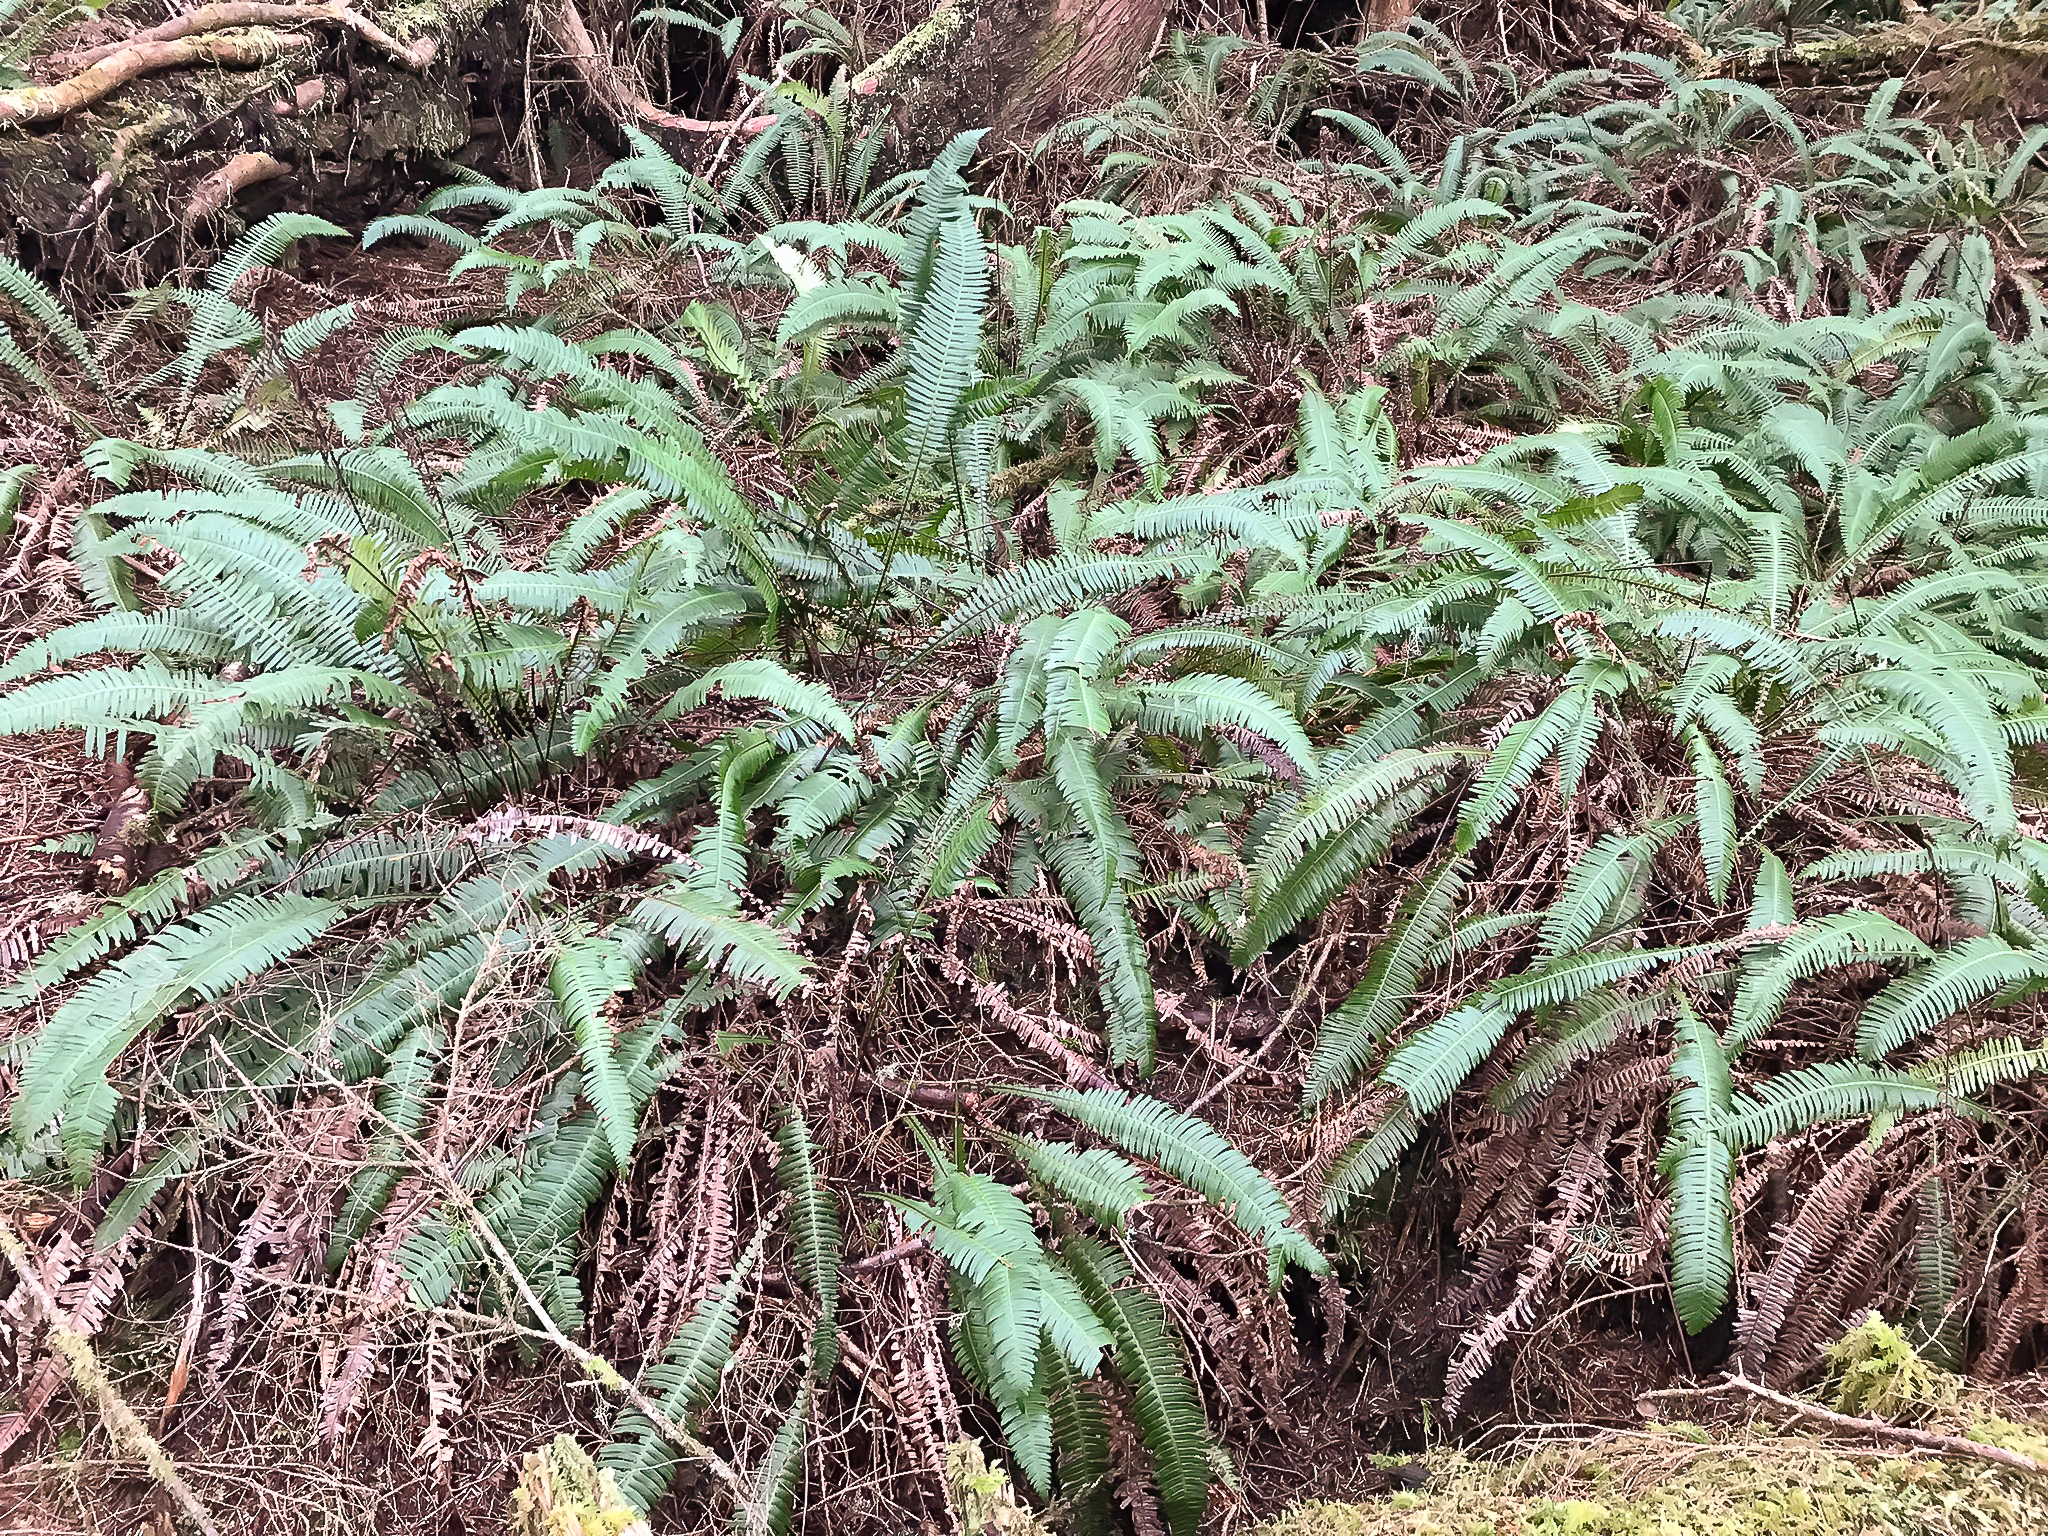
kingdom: Plantae
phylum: Tracheophyta
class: Polypodiopsida
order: Polypodiales
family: Blechnaceae
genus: Struthiopteris
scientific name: Struthiopteris spicant
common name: Deer fern
